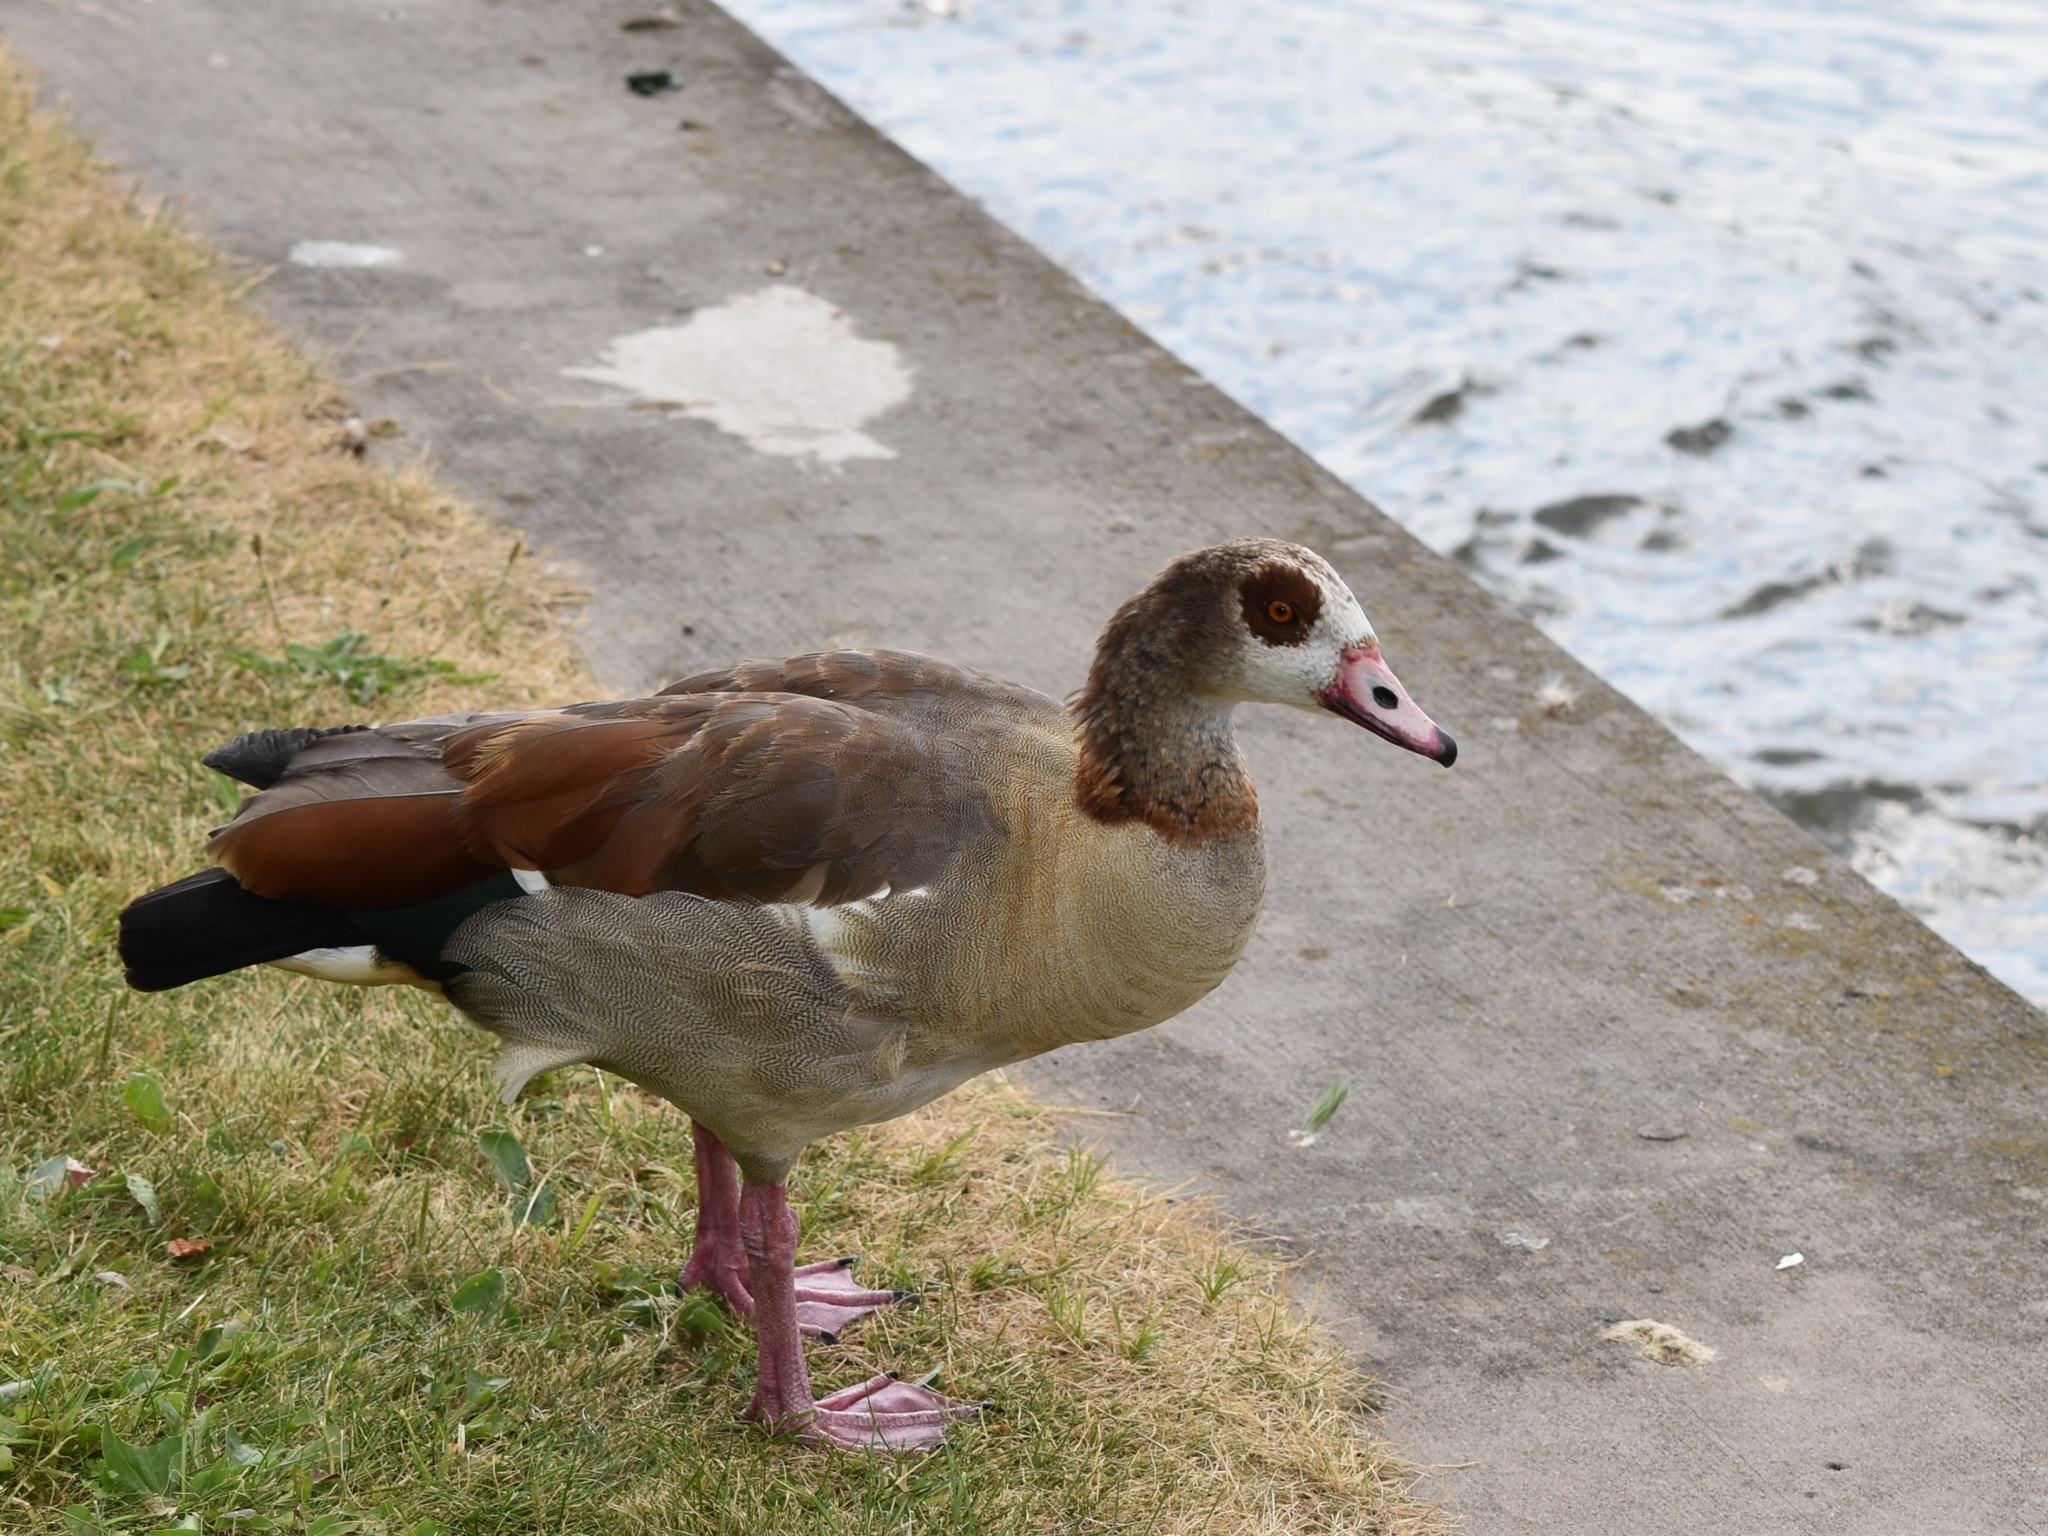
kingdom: Animalia
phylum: Chordata
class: Aves
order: Anseriformes
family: Anatidae
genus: Alopochen
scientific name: Alopochen aegyptiaca
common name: Egyptian goose
